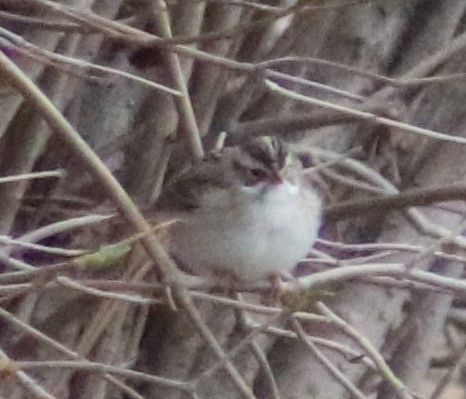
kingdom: Animalia
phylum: Chordata
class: Aves
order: Passeriformes
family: Passerellidae
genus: Spizella
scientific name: Spizella pallida
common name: Clay-colored sparrow
